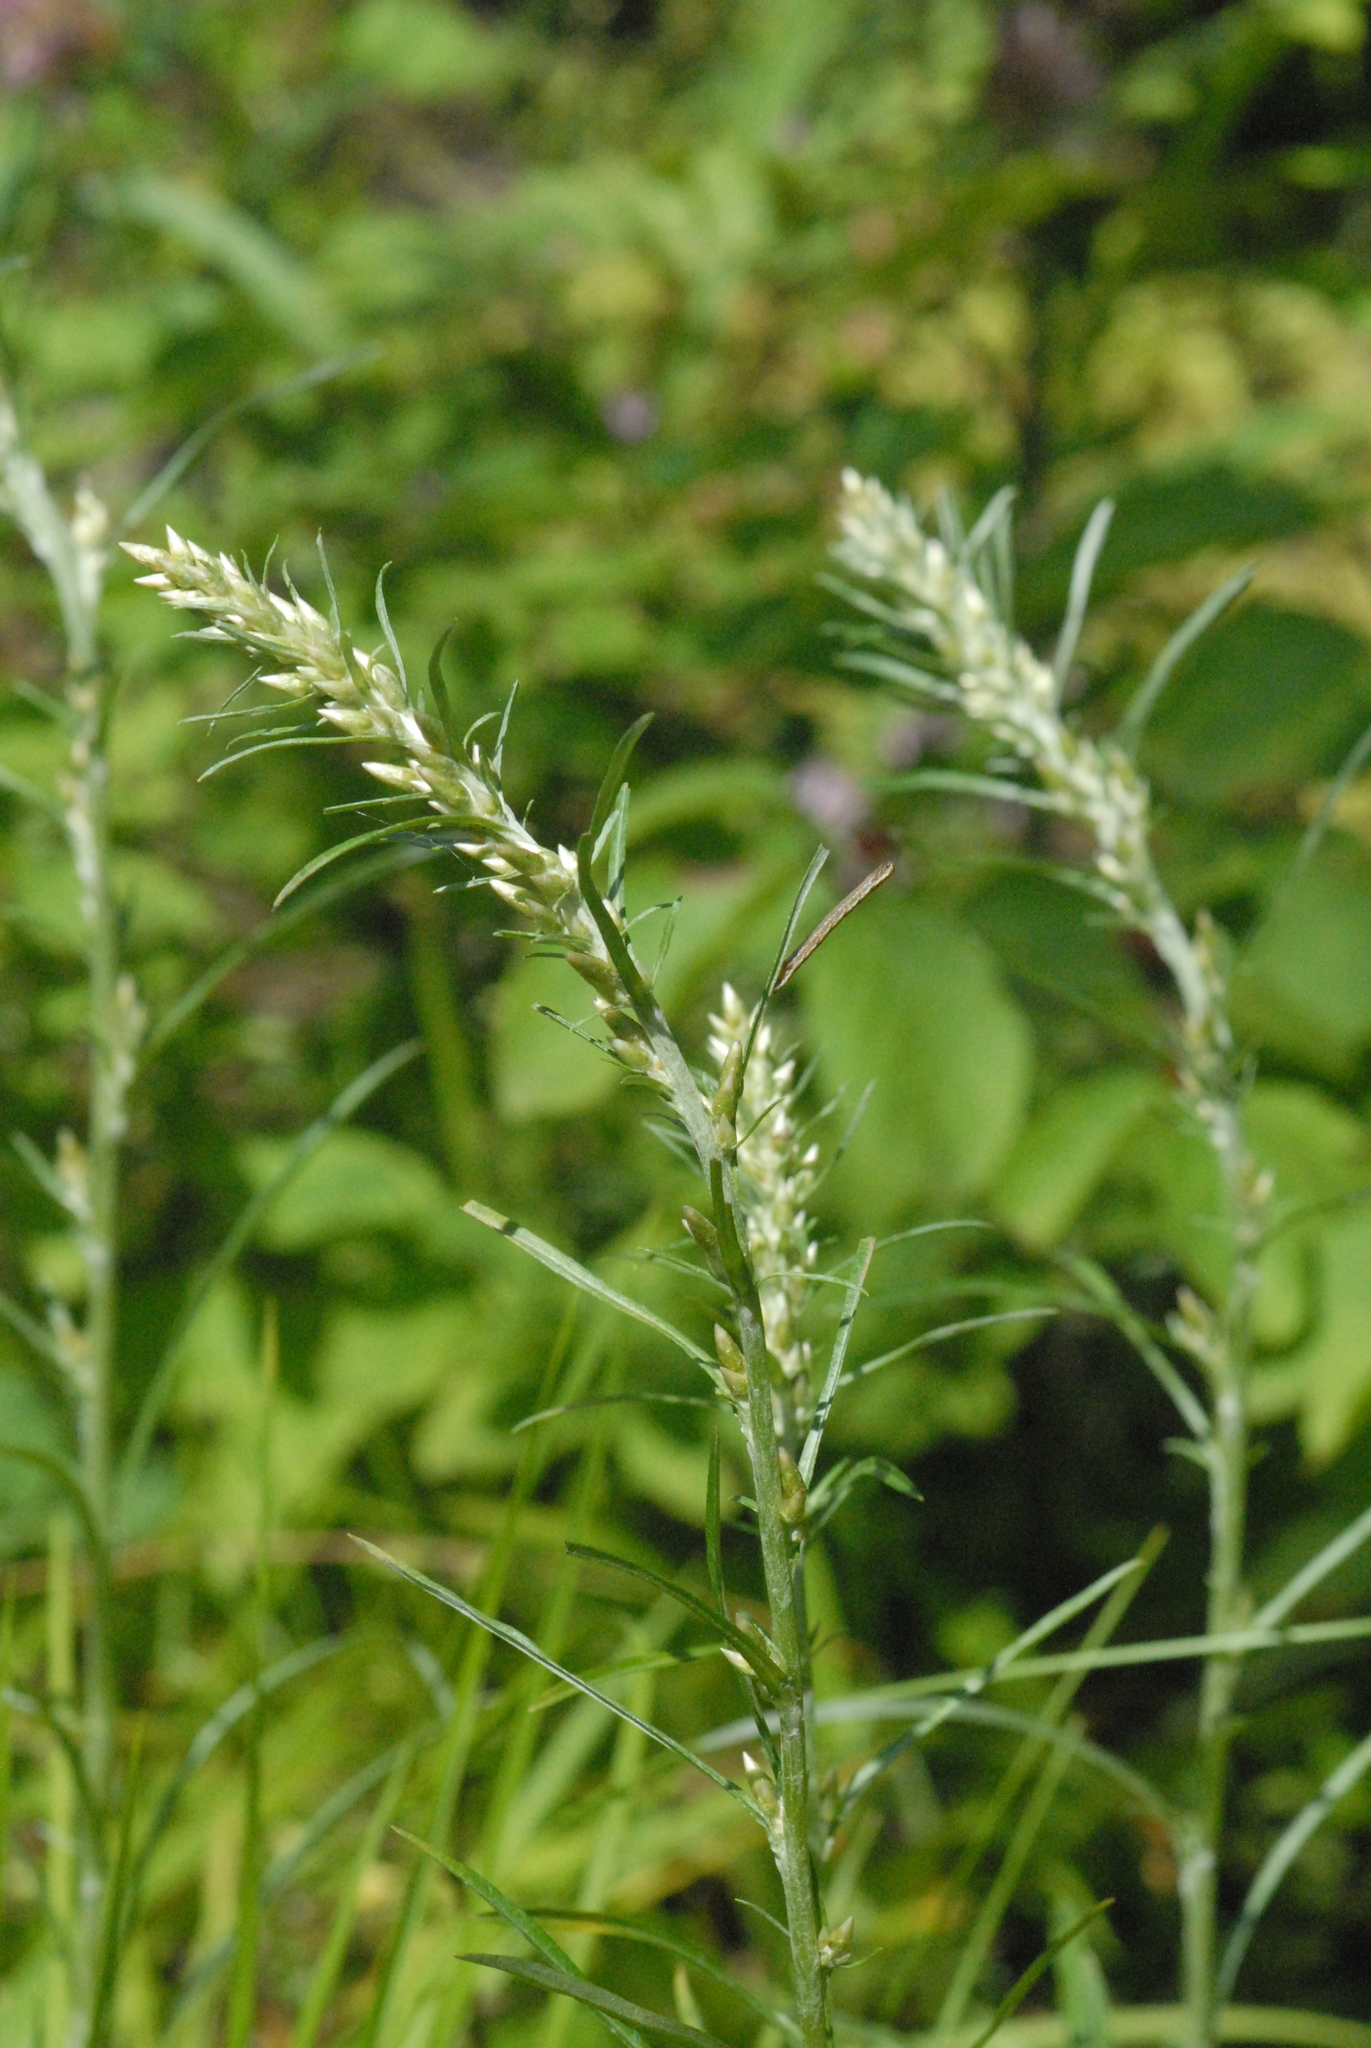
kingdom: Plantae
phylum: Tracheophyta
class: Magnoliopsida
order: Asterales
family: Asteraceae
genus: Omalotheca
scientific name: Omalotheca sylvatica
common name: Heath cudweed
